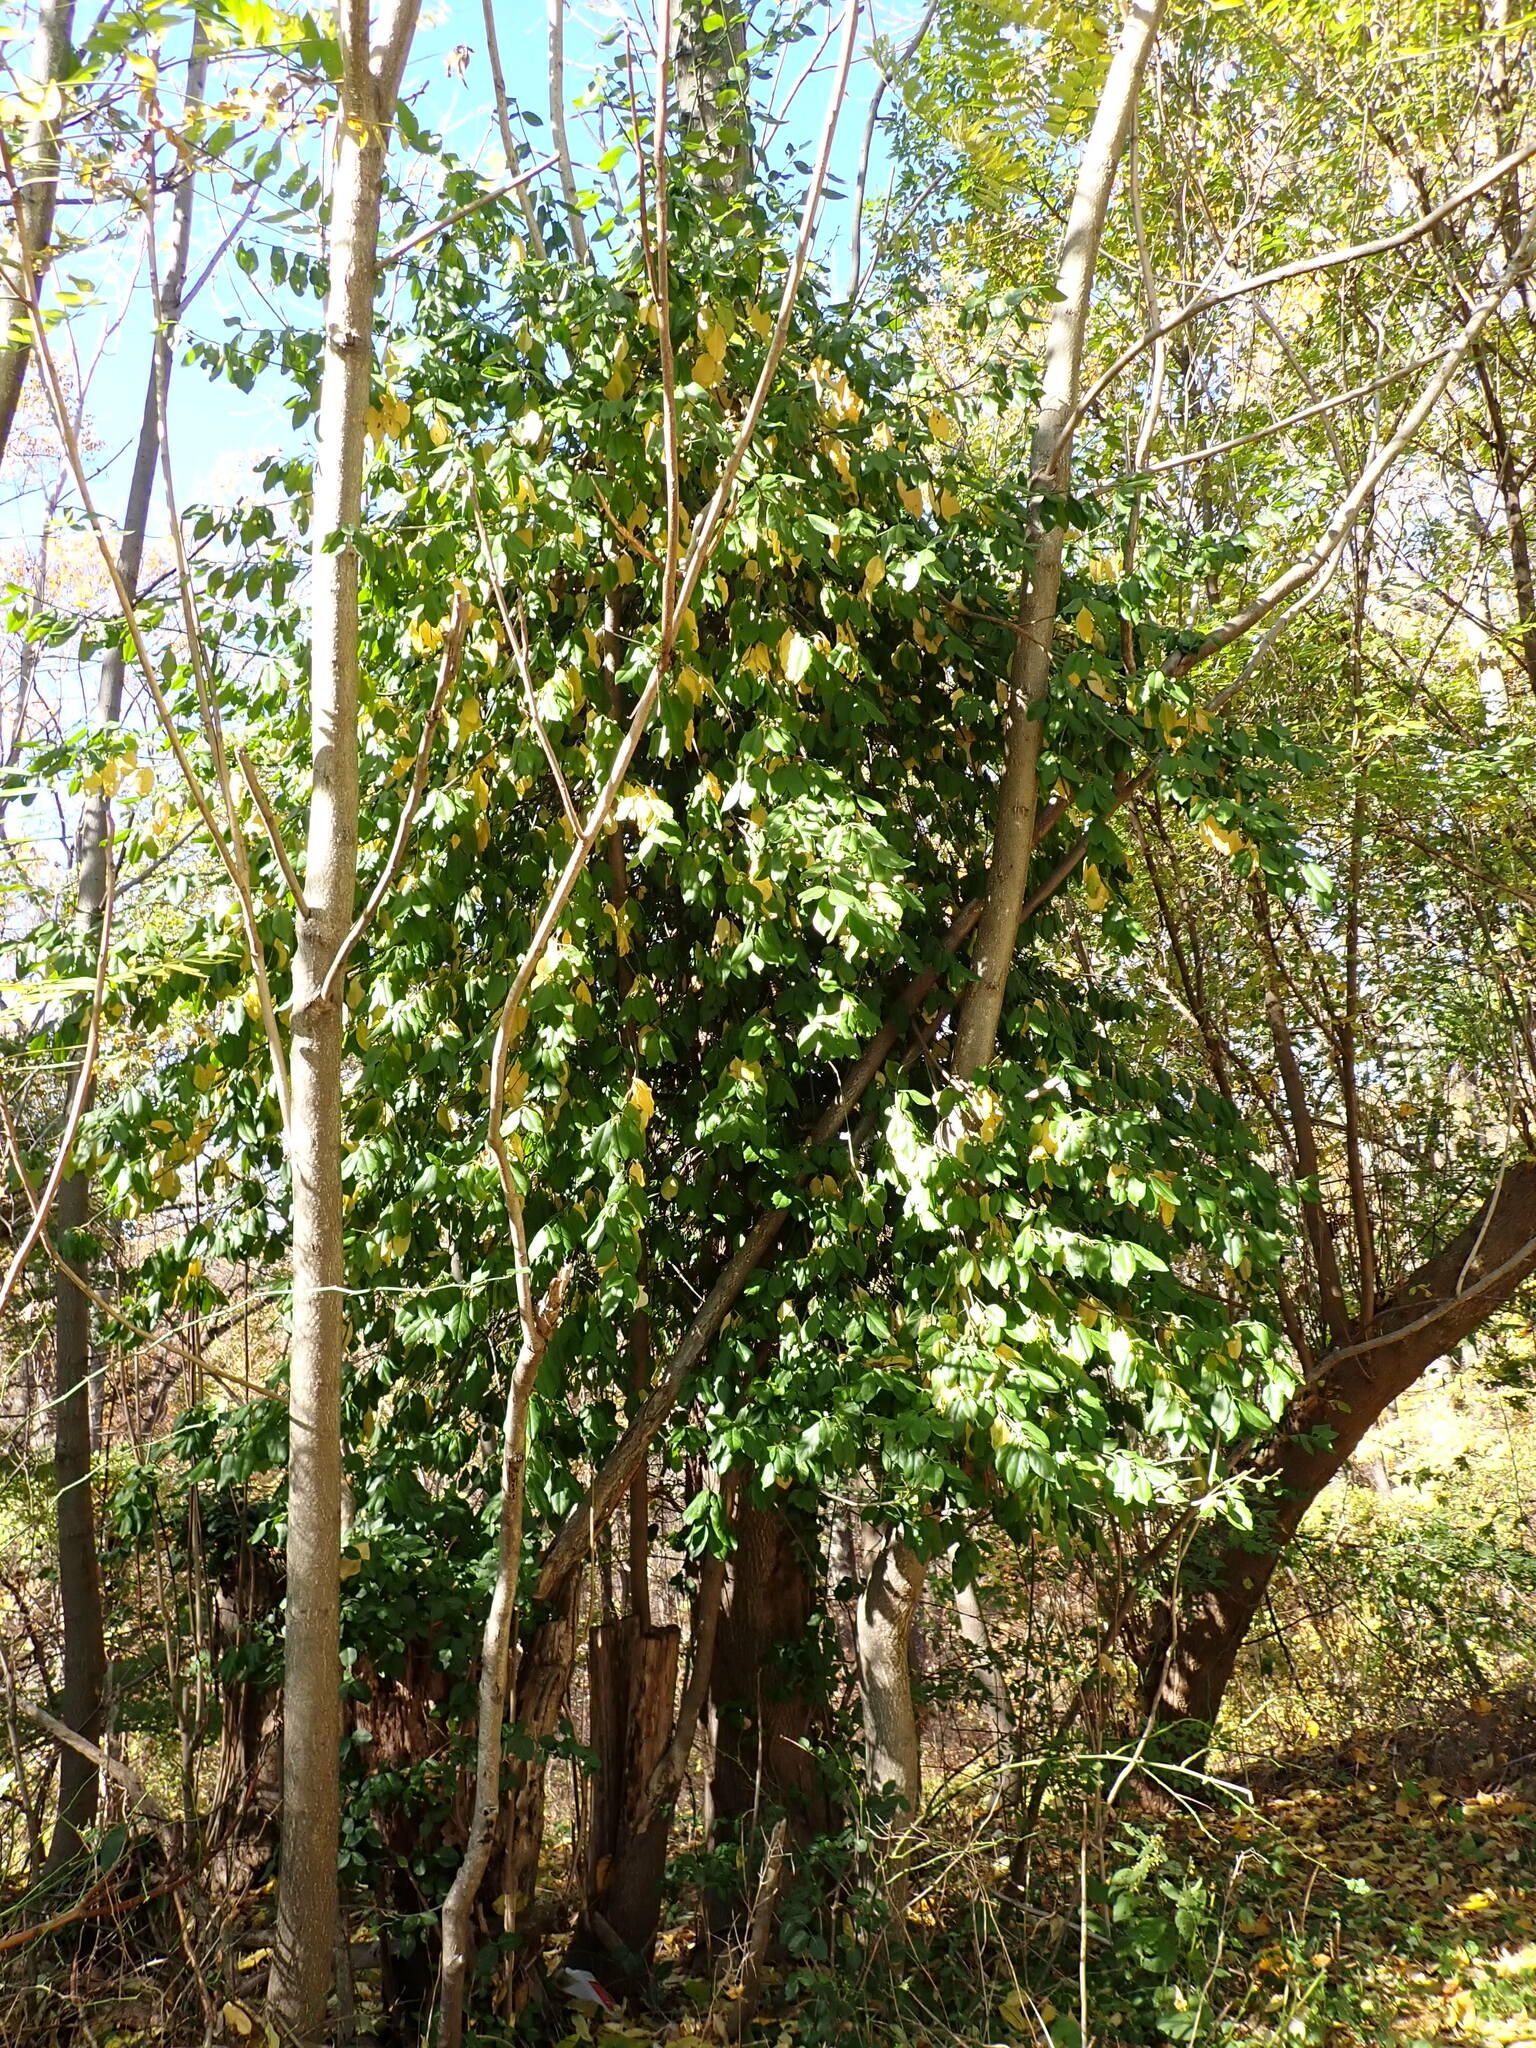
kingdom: Plantae
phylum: Tracheophyta
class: Magnoliopsida
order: Celastrales
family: Celastraceae
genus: Euonymus
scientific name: Euonymus fortunei
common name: Climbing euonymus
